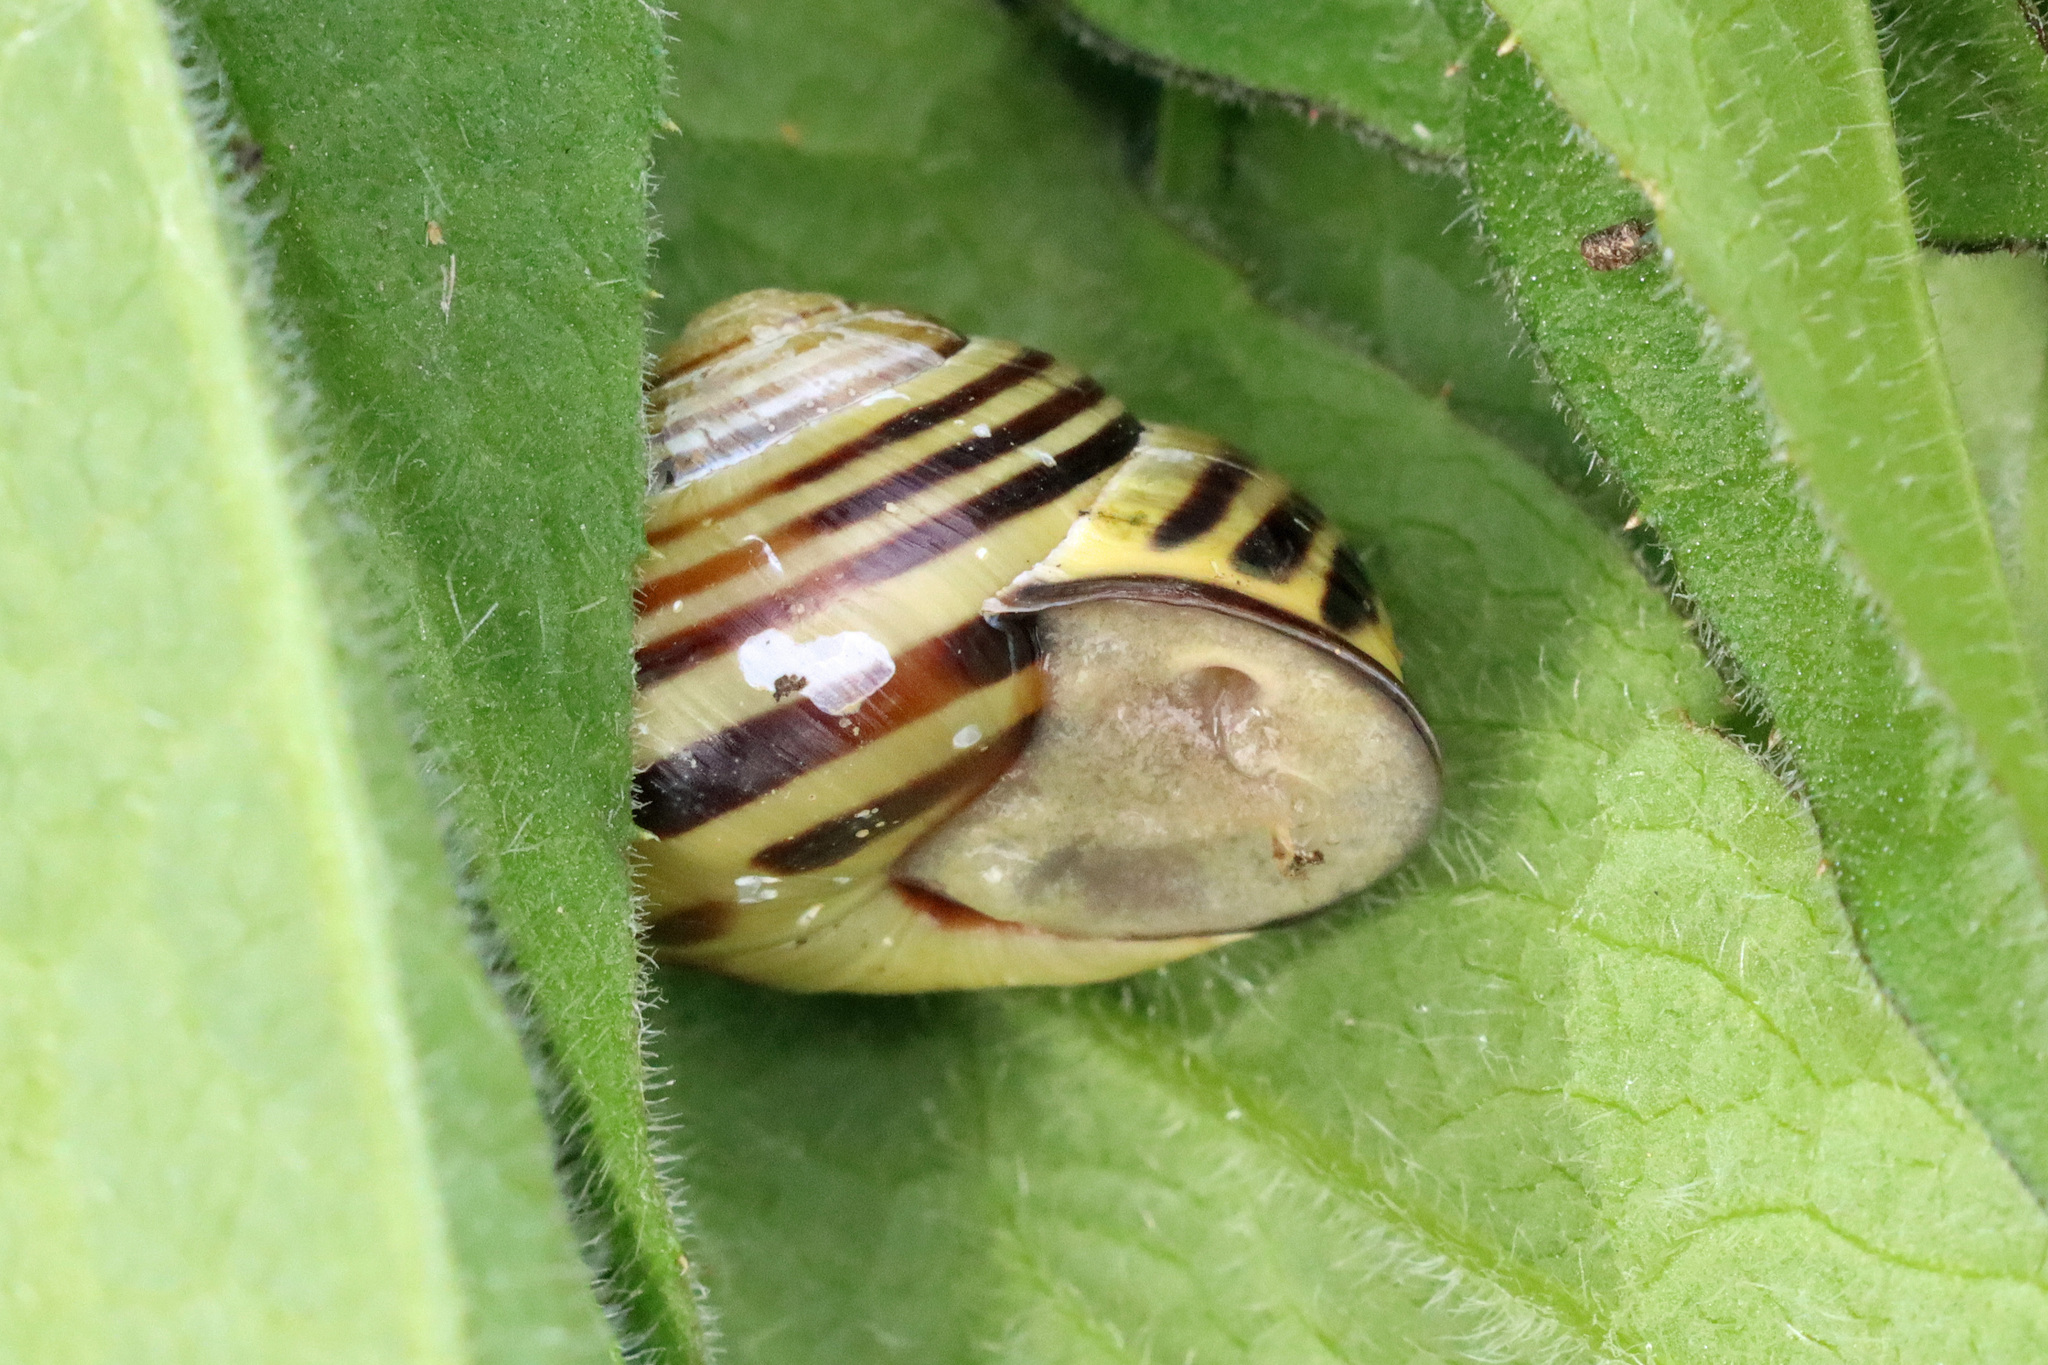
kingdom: Animalia
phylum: Mollusca
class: Gastropoda
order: Stylommatophora
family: Helicidae
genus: Cepaea
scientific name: Cepaea nemoralis
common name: Grovesnail
